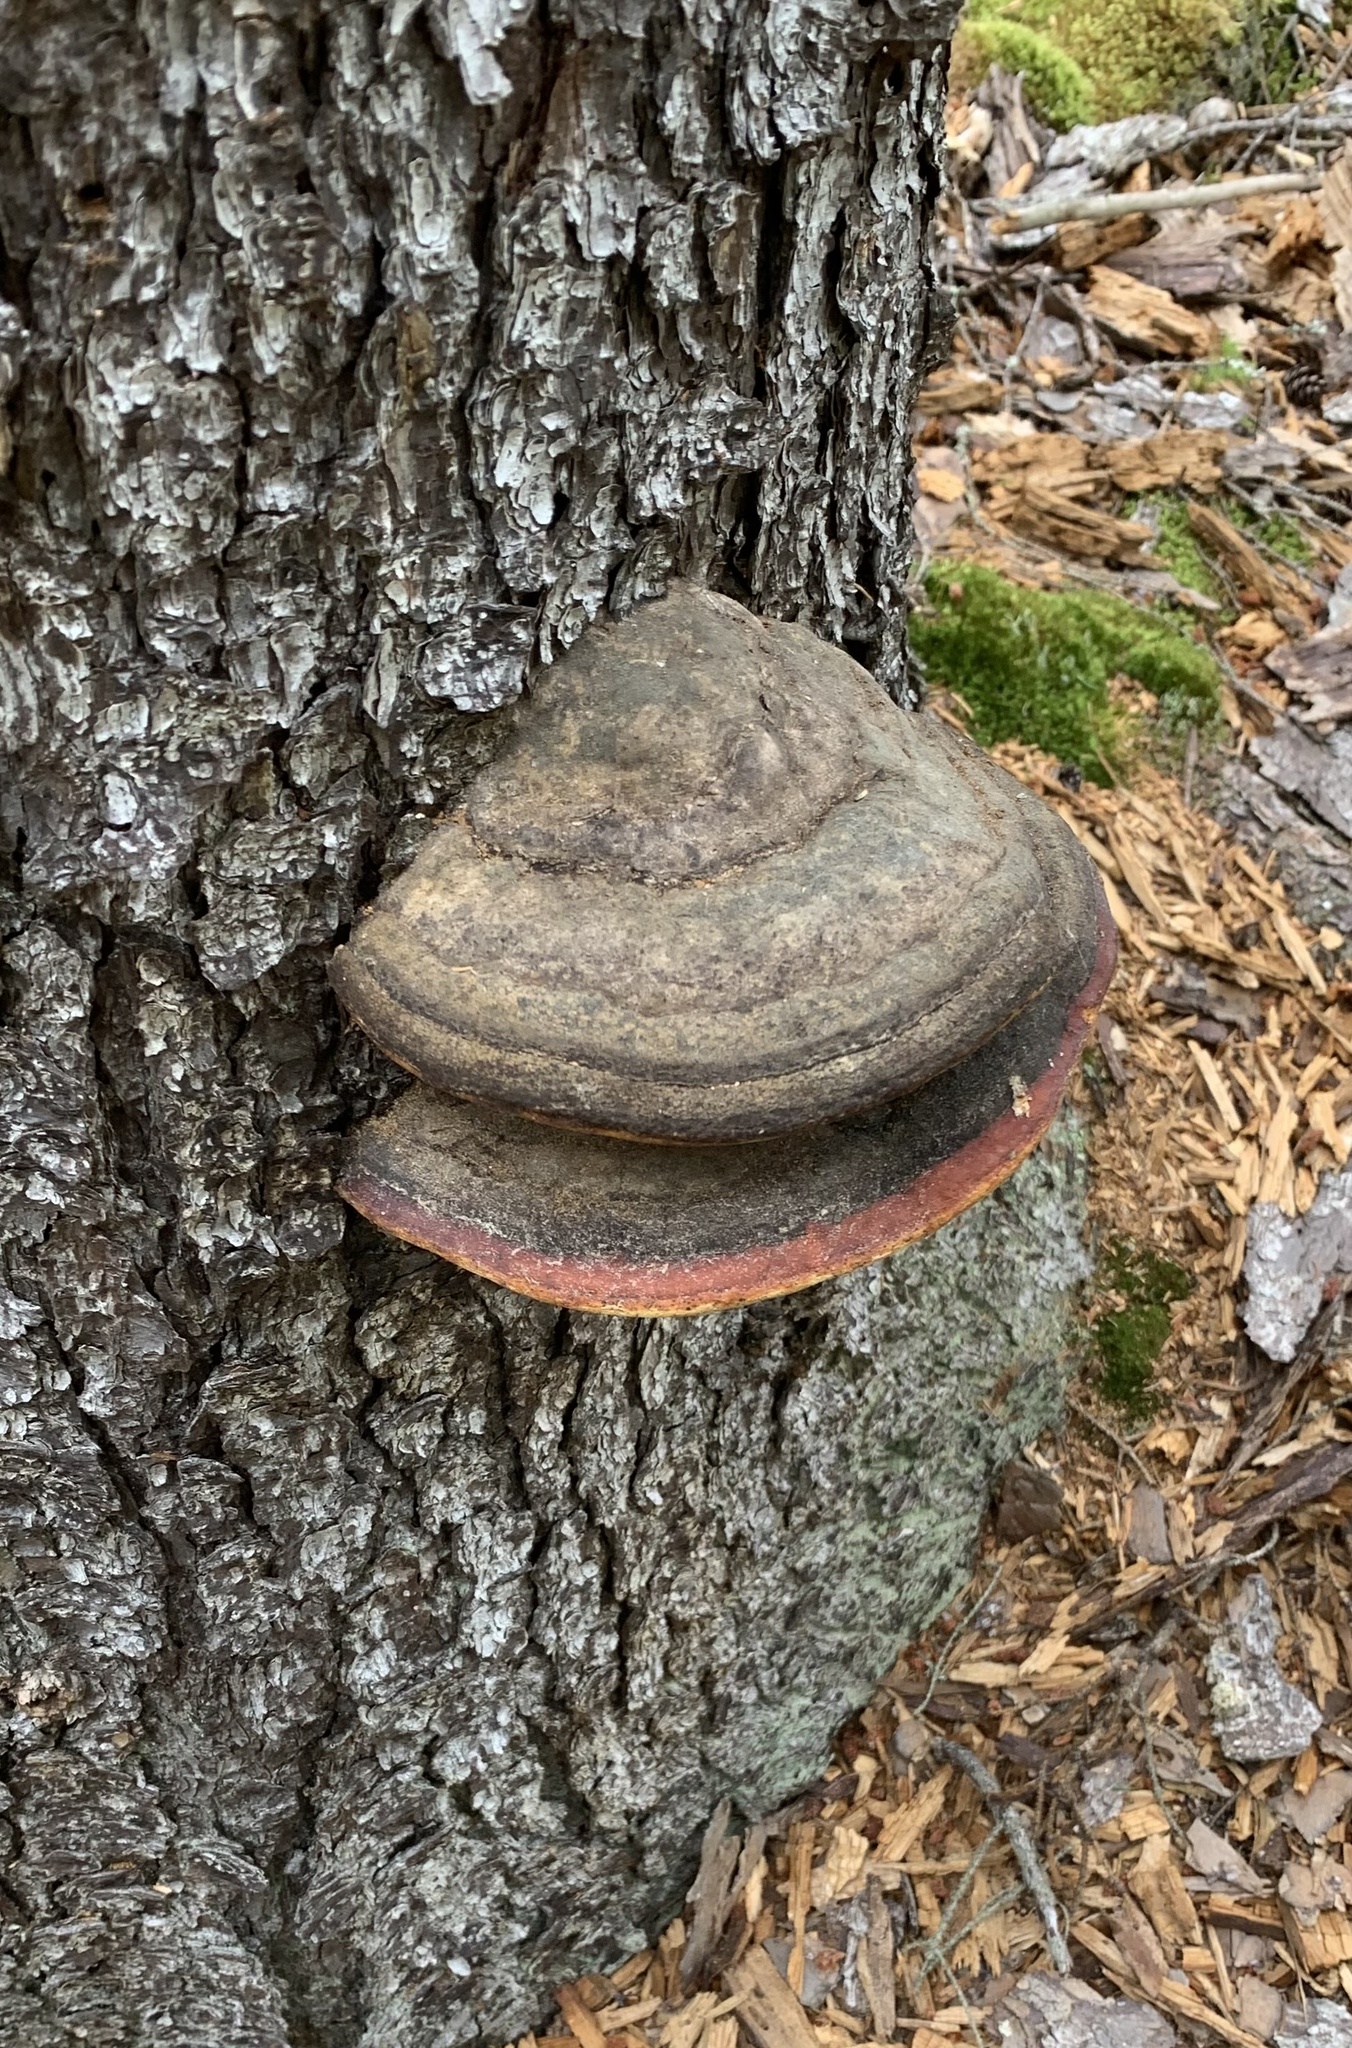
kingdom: Fungi
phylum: Basidiomycota
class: Agaricomycetes
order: Polyporales
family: Fomitopsidaceae
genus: Fomitopsis
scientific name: Fomitopsis mounceae
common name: Northern red belt
